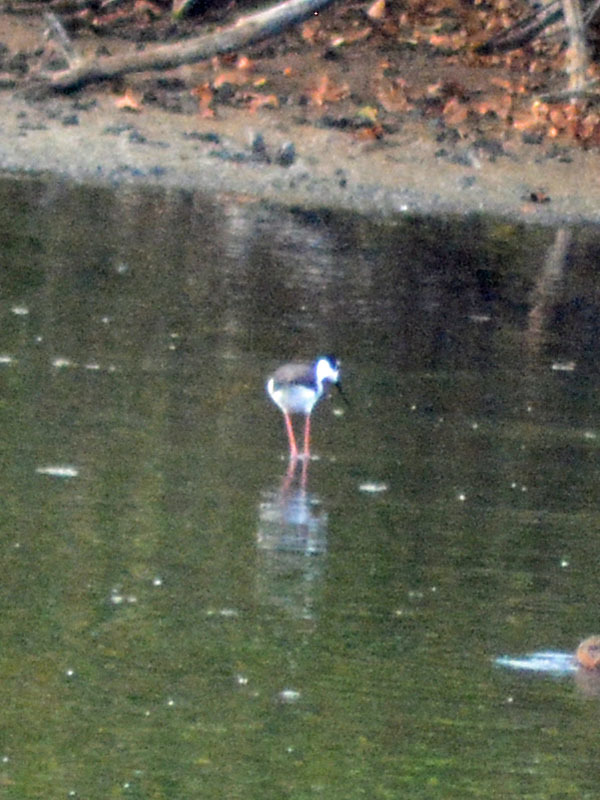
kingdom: Animalia
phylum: Chordata
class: Aves
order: Charadriiformes
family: Recurvirostridae
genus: Himantopus
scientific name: Himantopus mexicanus
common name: Black-necked stilt
